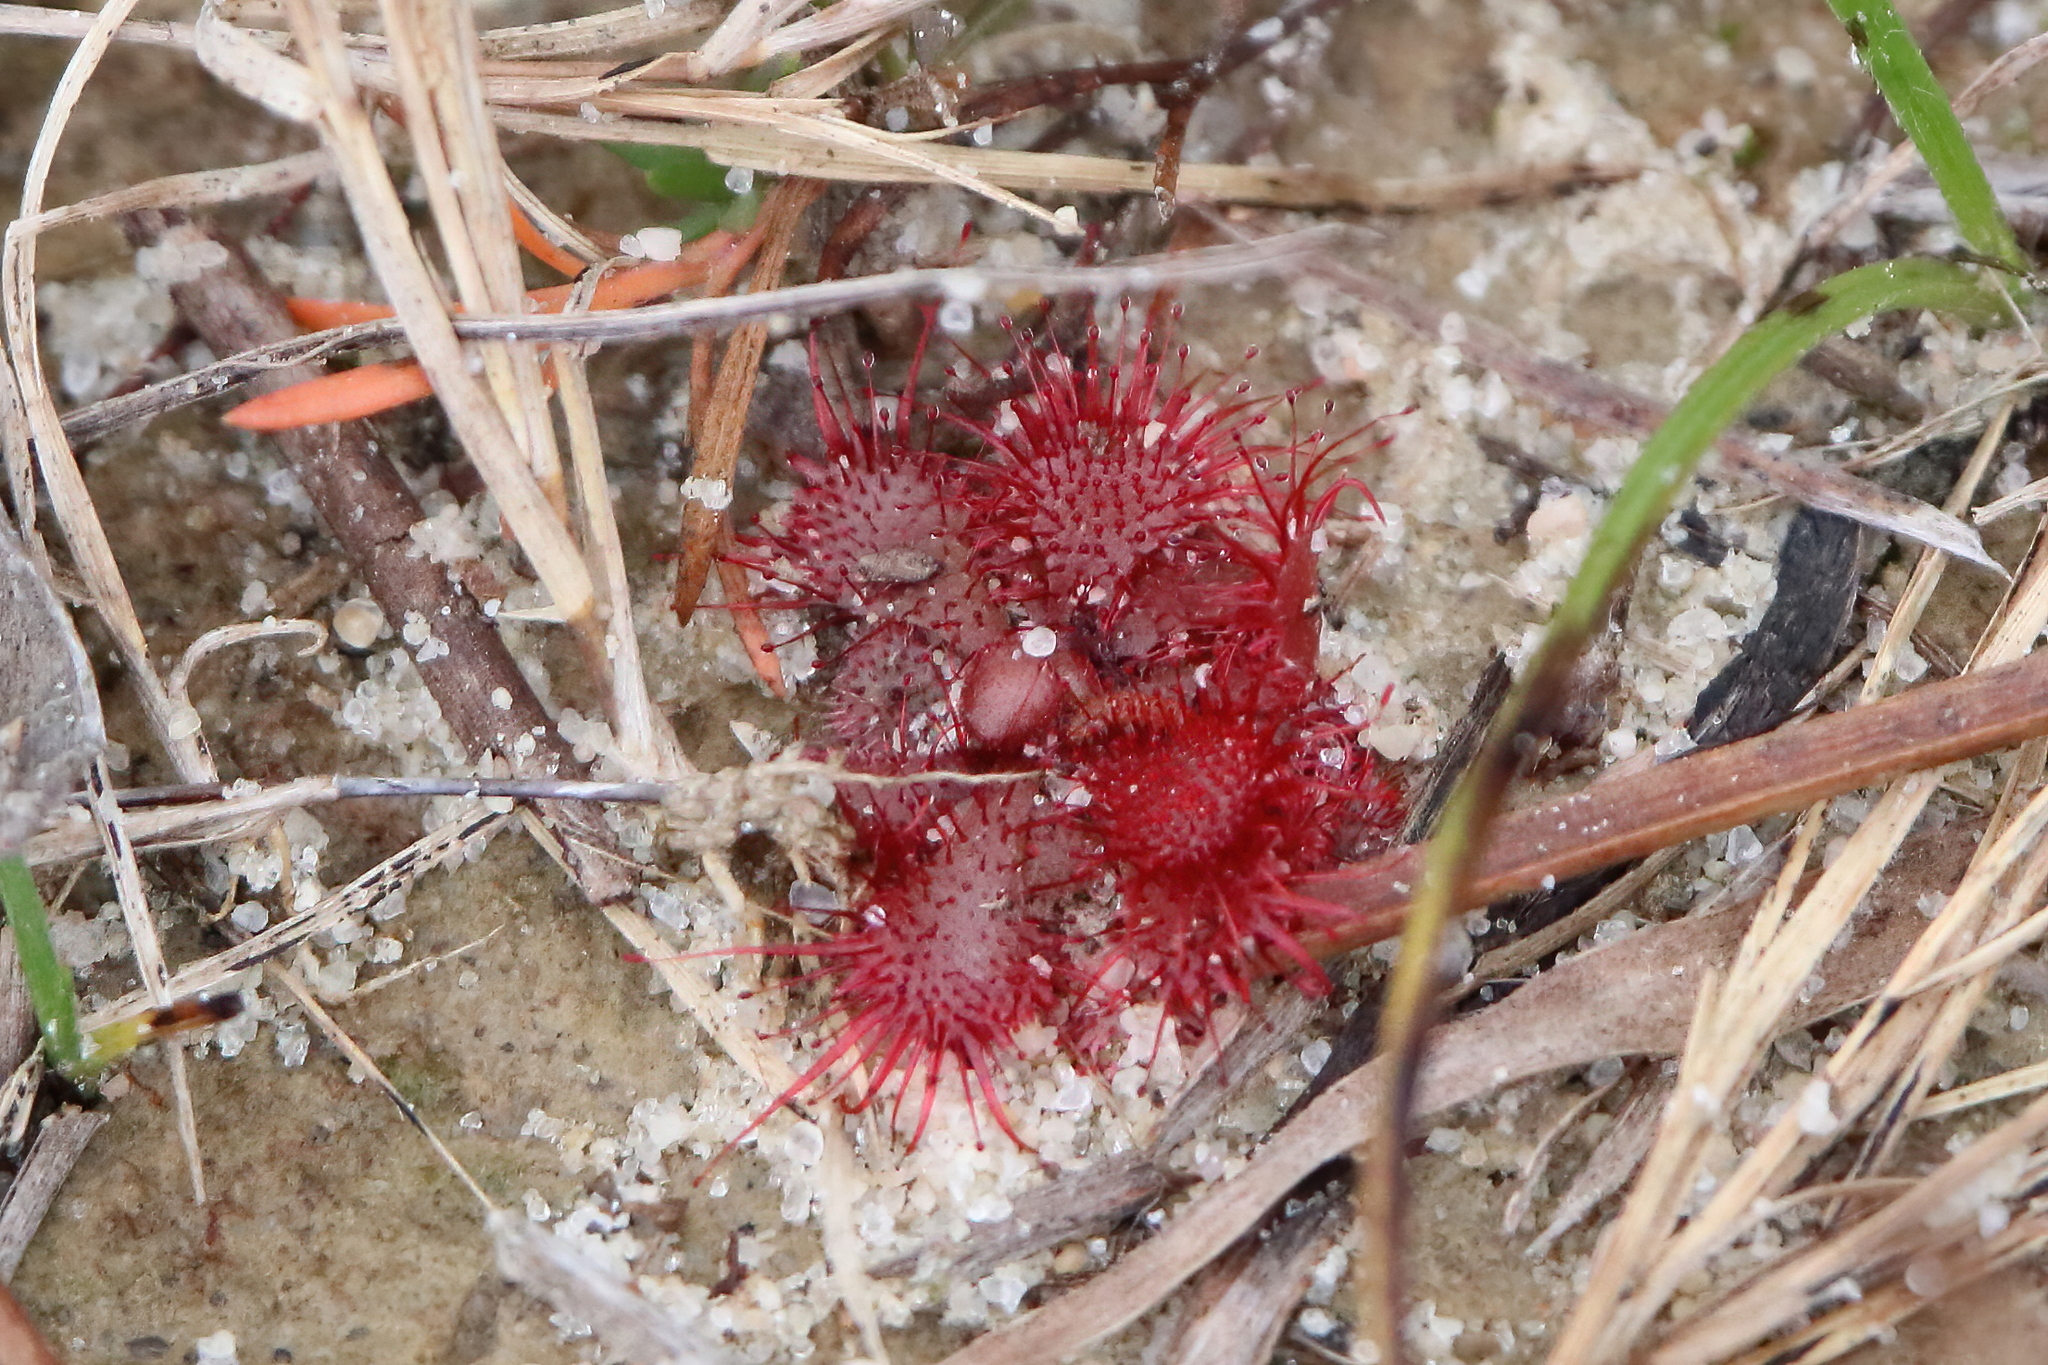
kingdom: Plantae
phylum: Tracheophyta
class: Magnoliopsida
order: Caryophyllales
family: Droseraceae
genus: Drosera
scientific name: Drosera brevifolia
